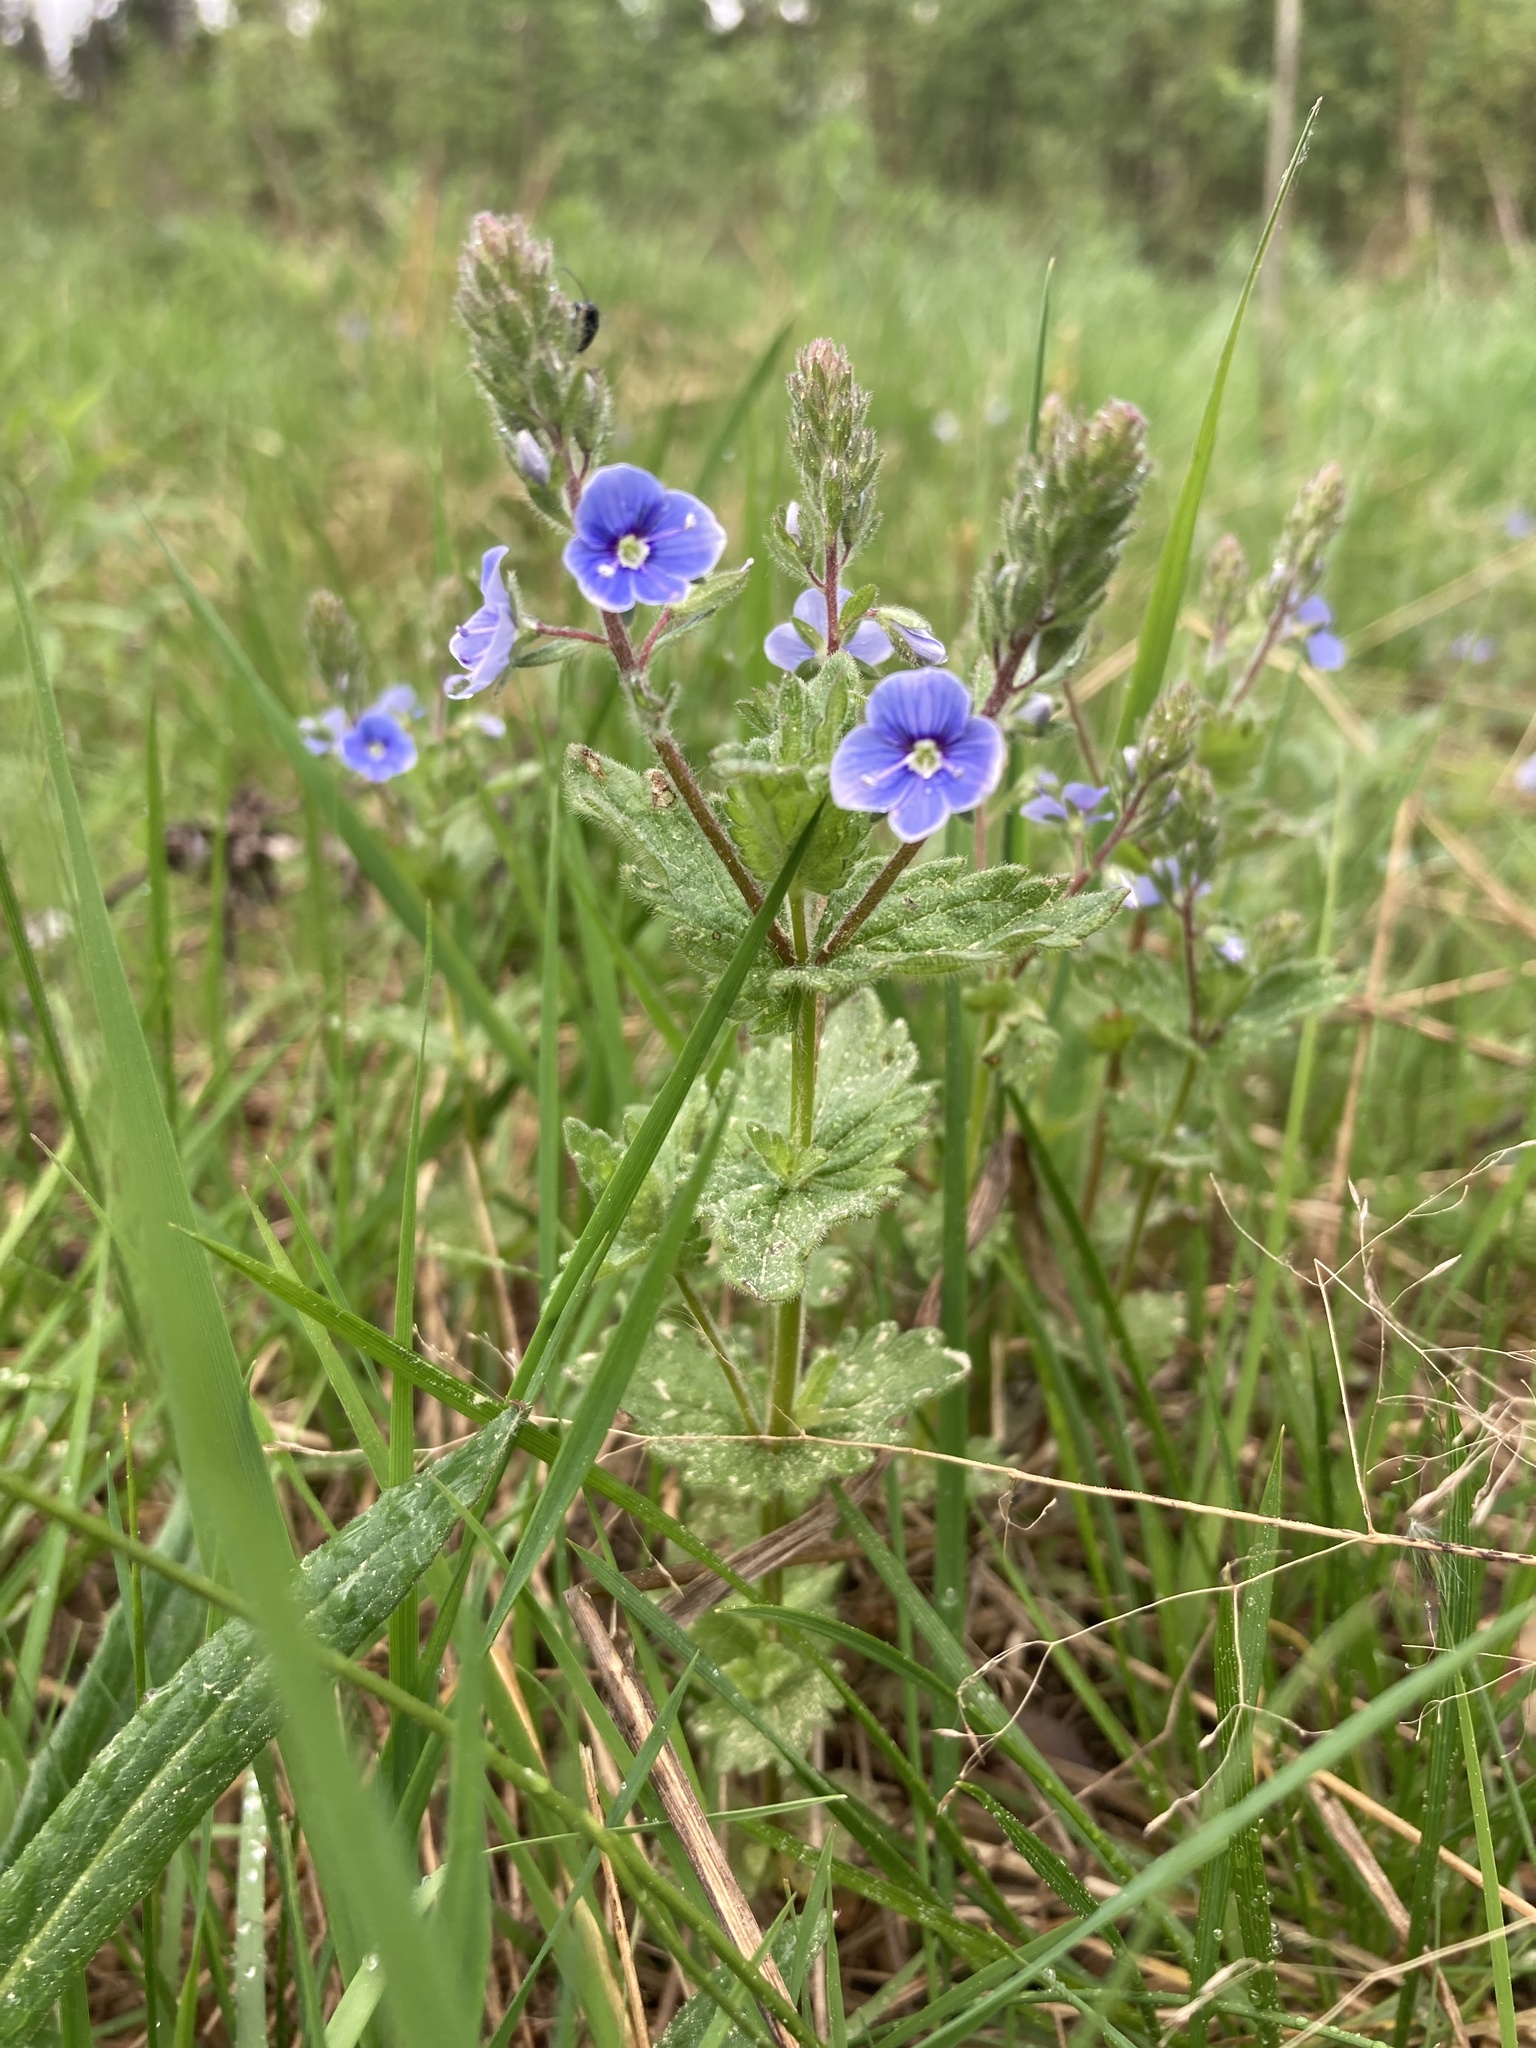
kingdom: Plantae
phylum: Tracheophyta
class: Magnoliopsida
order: Lamiales
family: Plantaginaceae
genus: Veronica
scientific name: Veronica chamaedrys
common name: Germander speedwell
